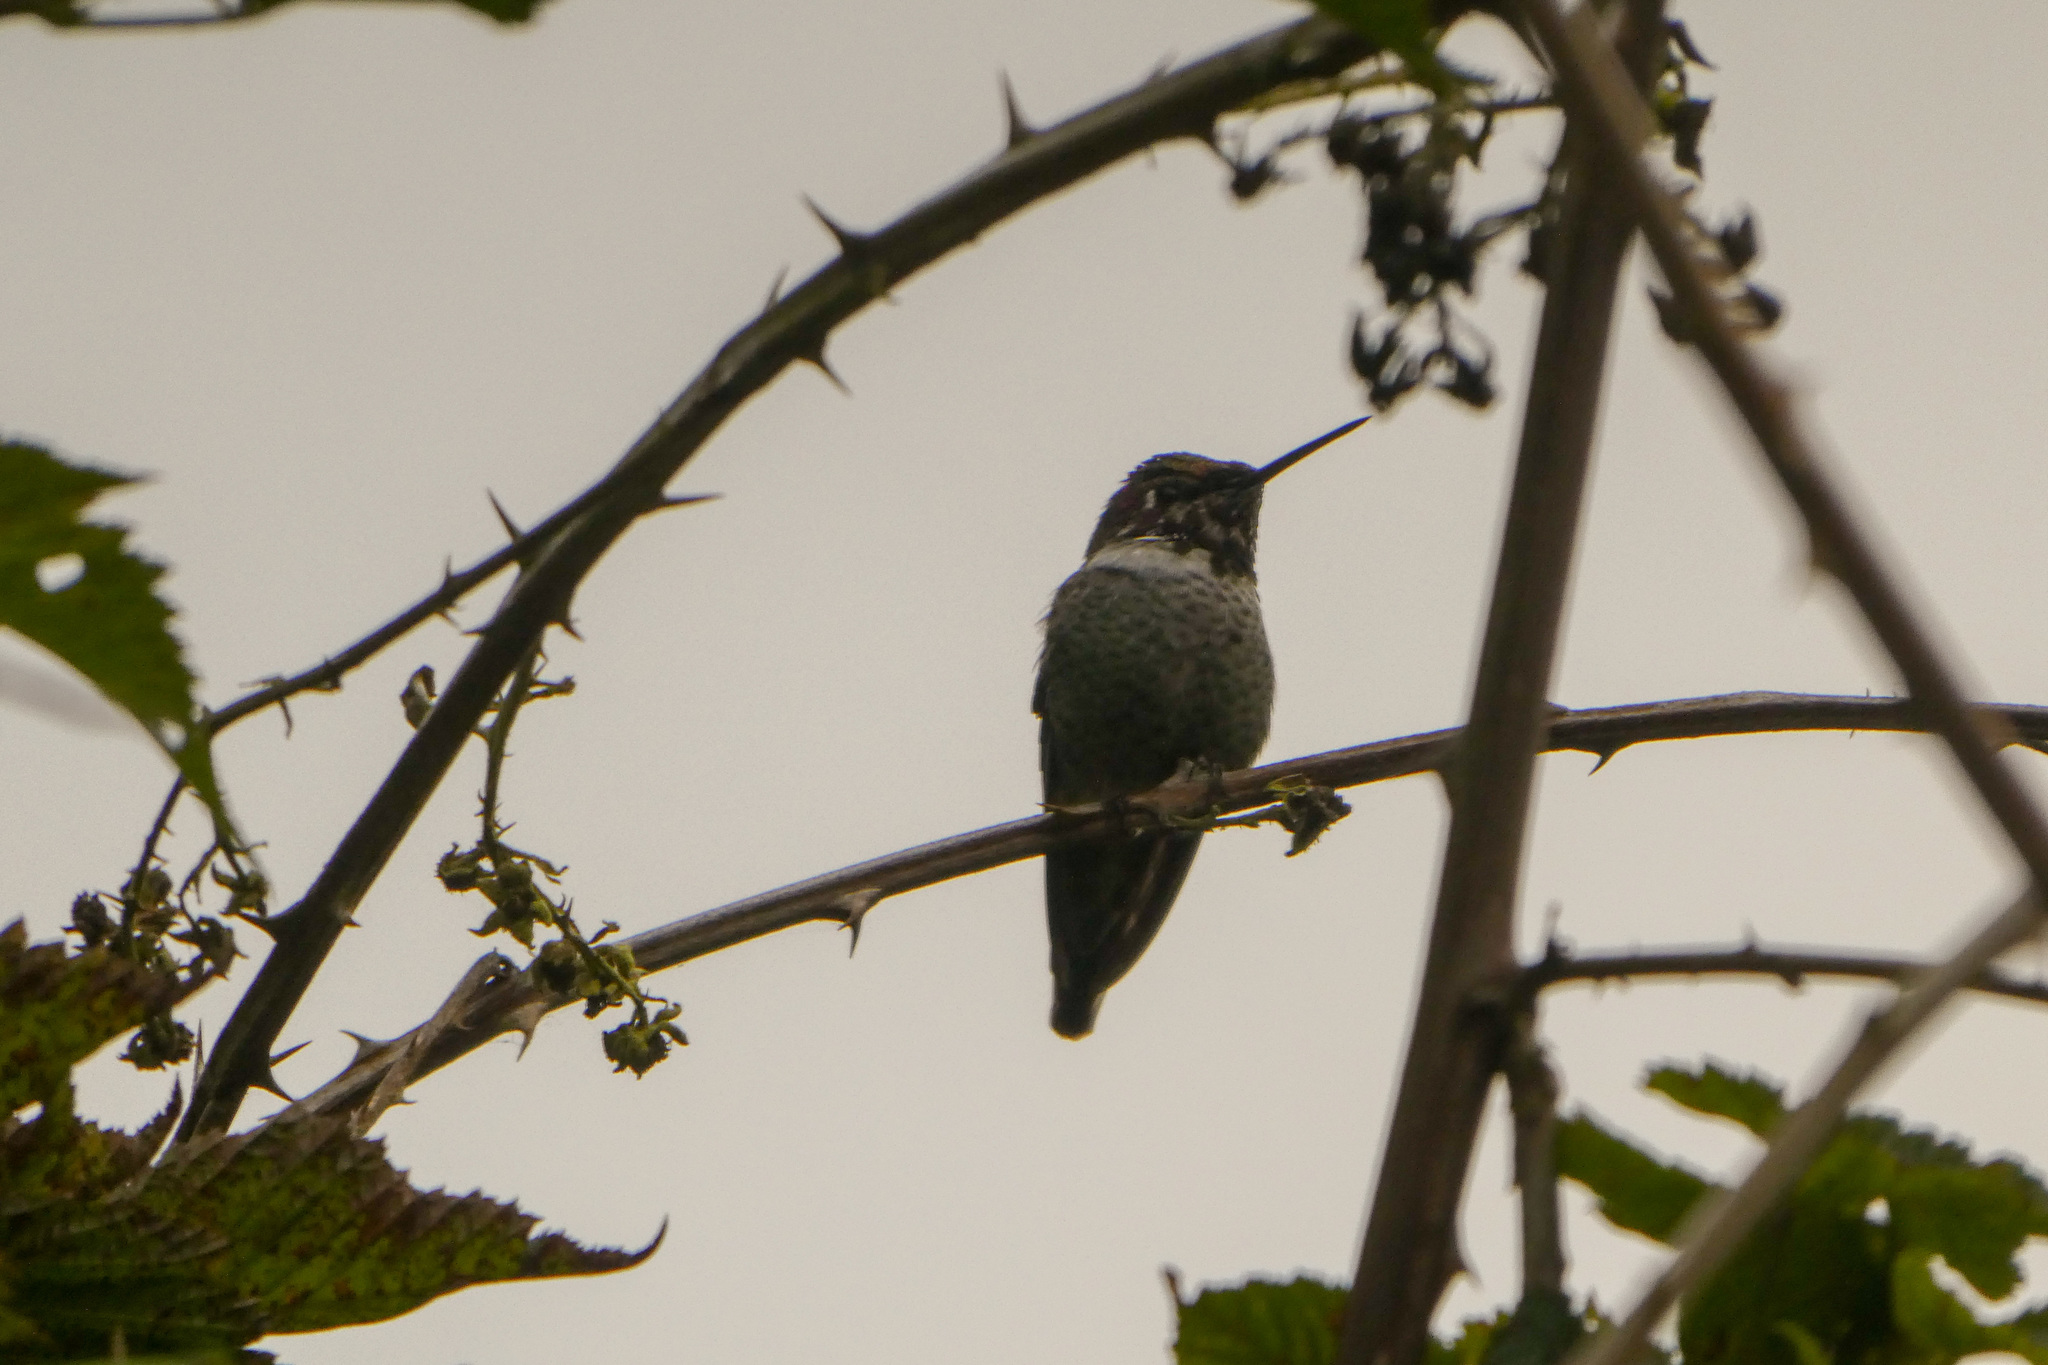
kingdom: Animalia
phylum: Chordata
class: Aves
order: Apodiformes
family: Trochilidae
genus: Calypte
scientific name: Calypte anna
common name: Anna's hummingbird
